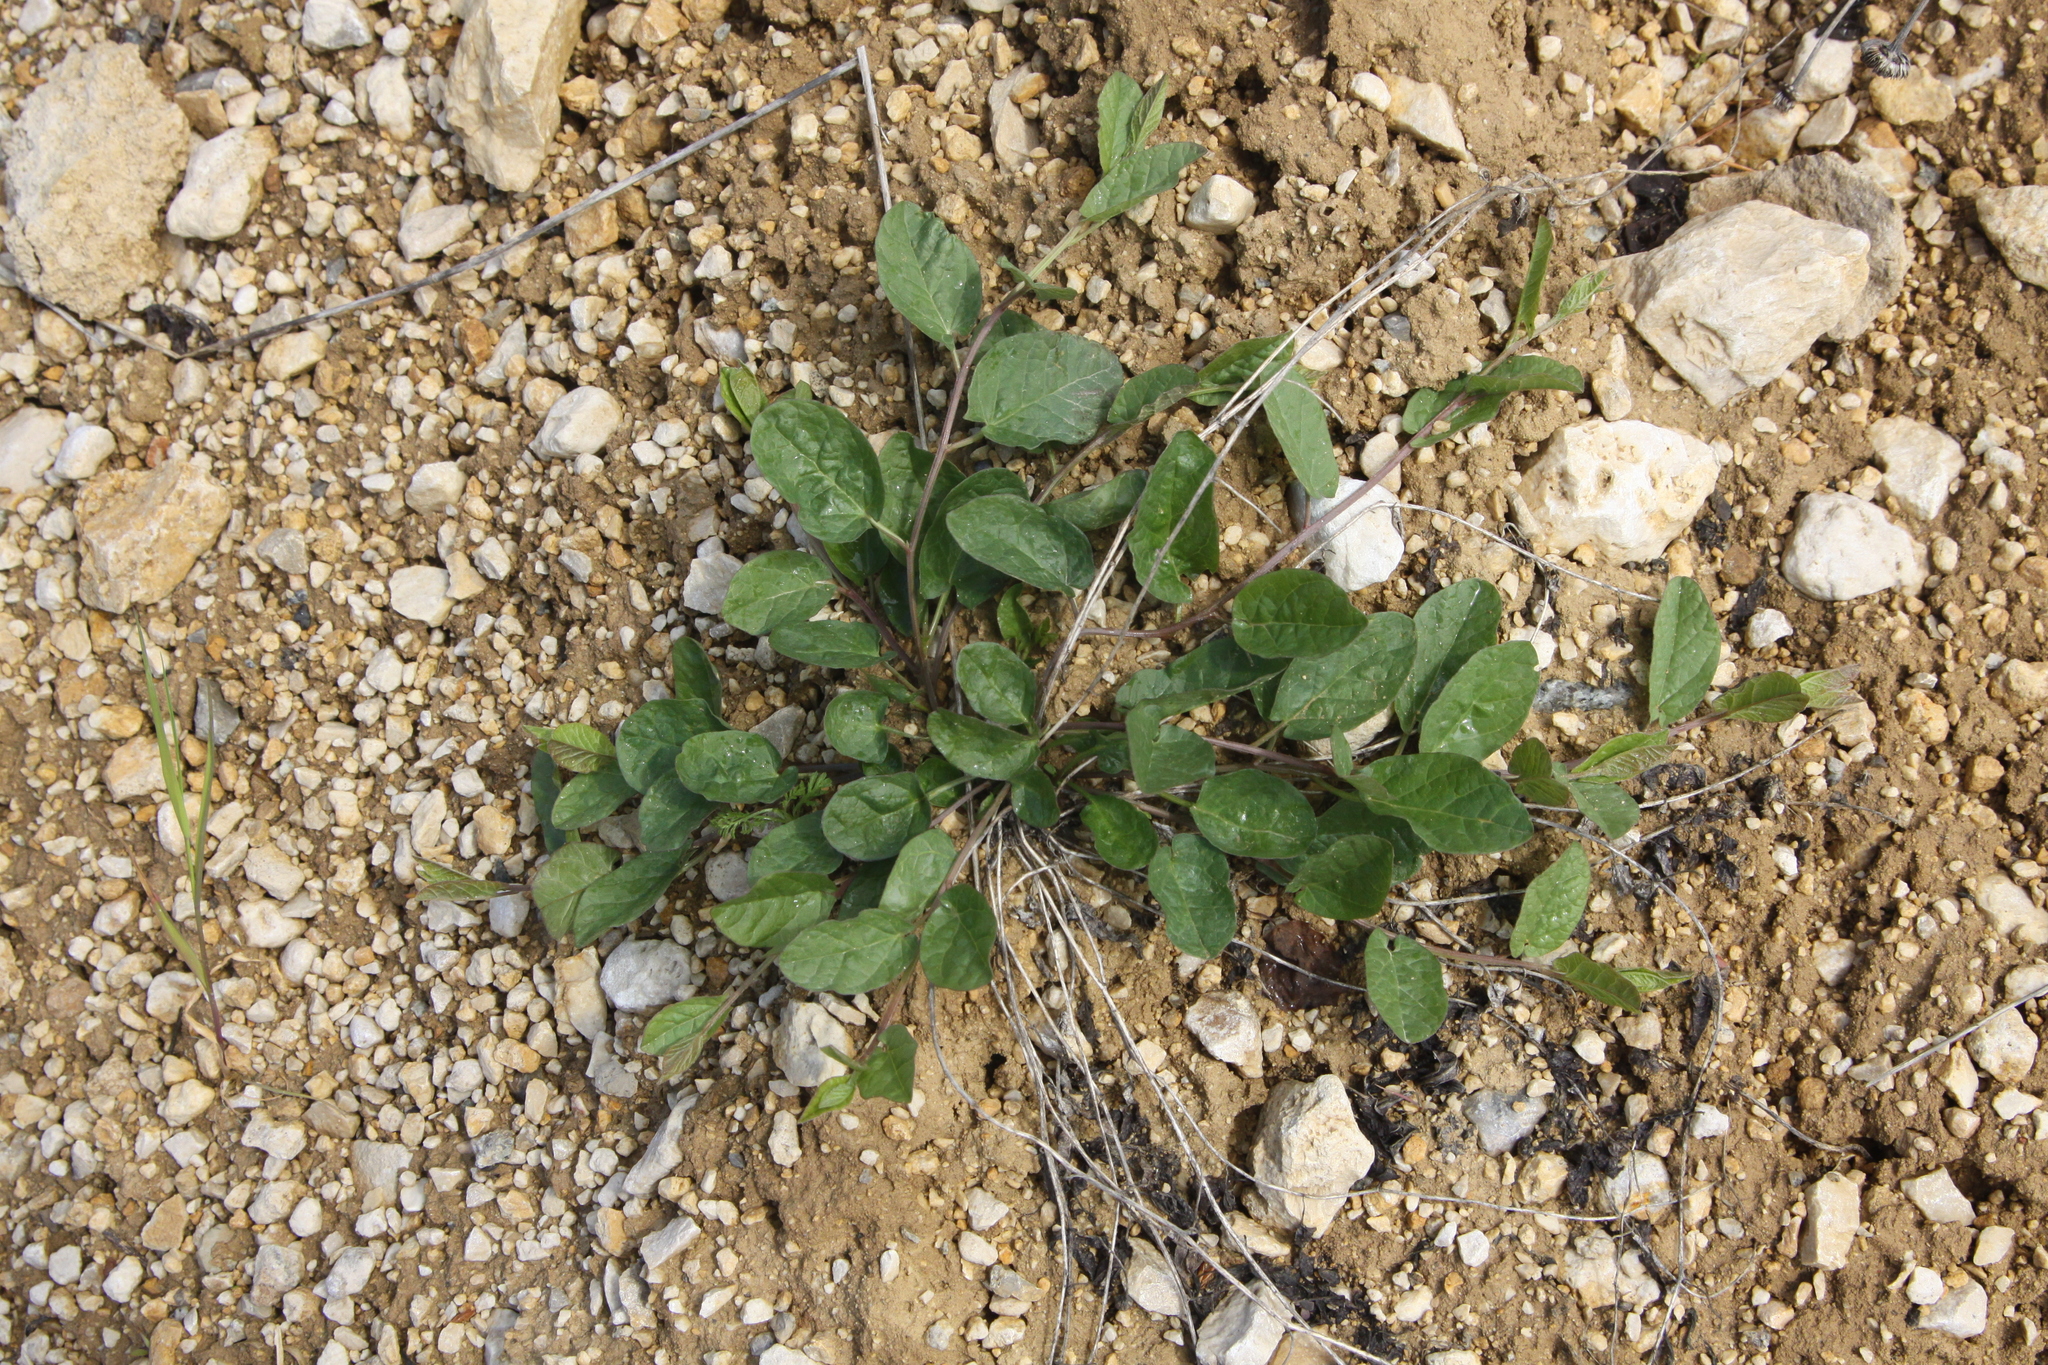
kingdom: Plantae
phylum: Tracheophyta
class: Magnoliopsida
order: Solanales
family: Convolvulaceae
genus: Convolvulus
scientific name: Convolvulus arvensis
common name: Field bindweed
